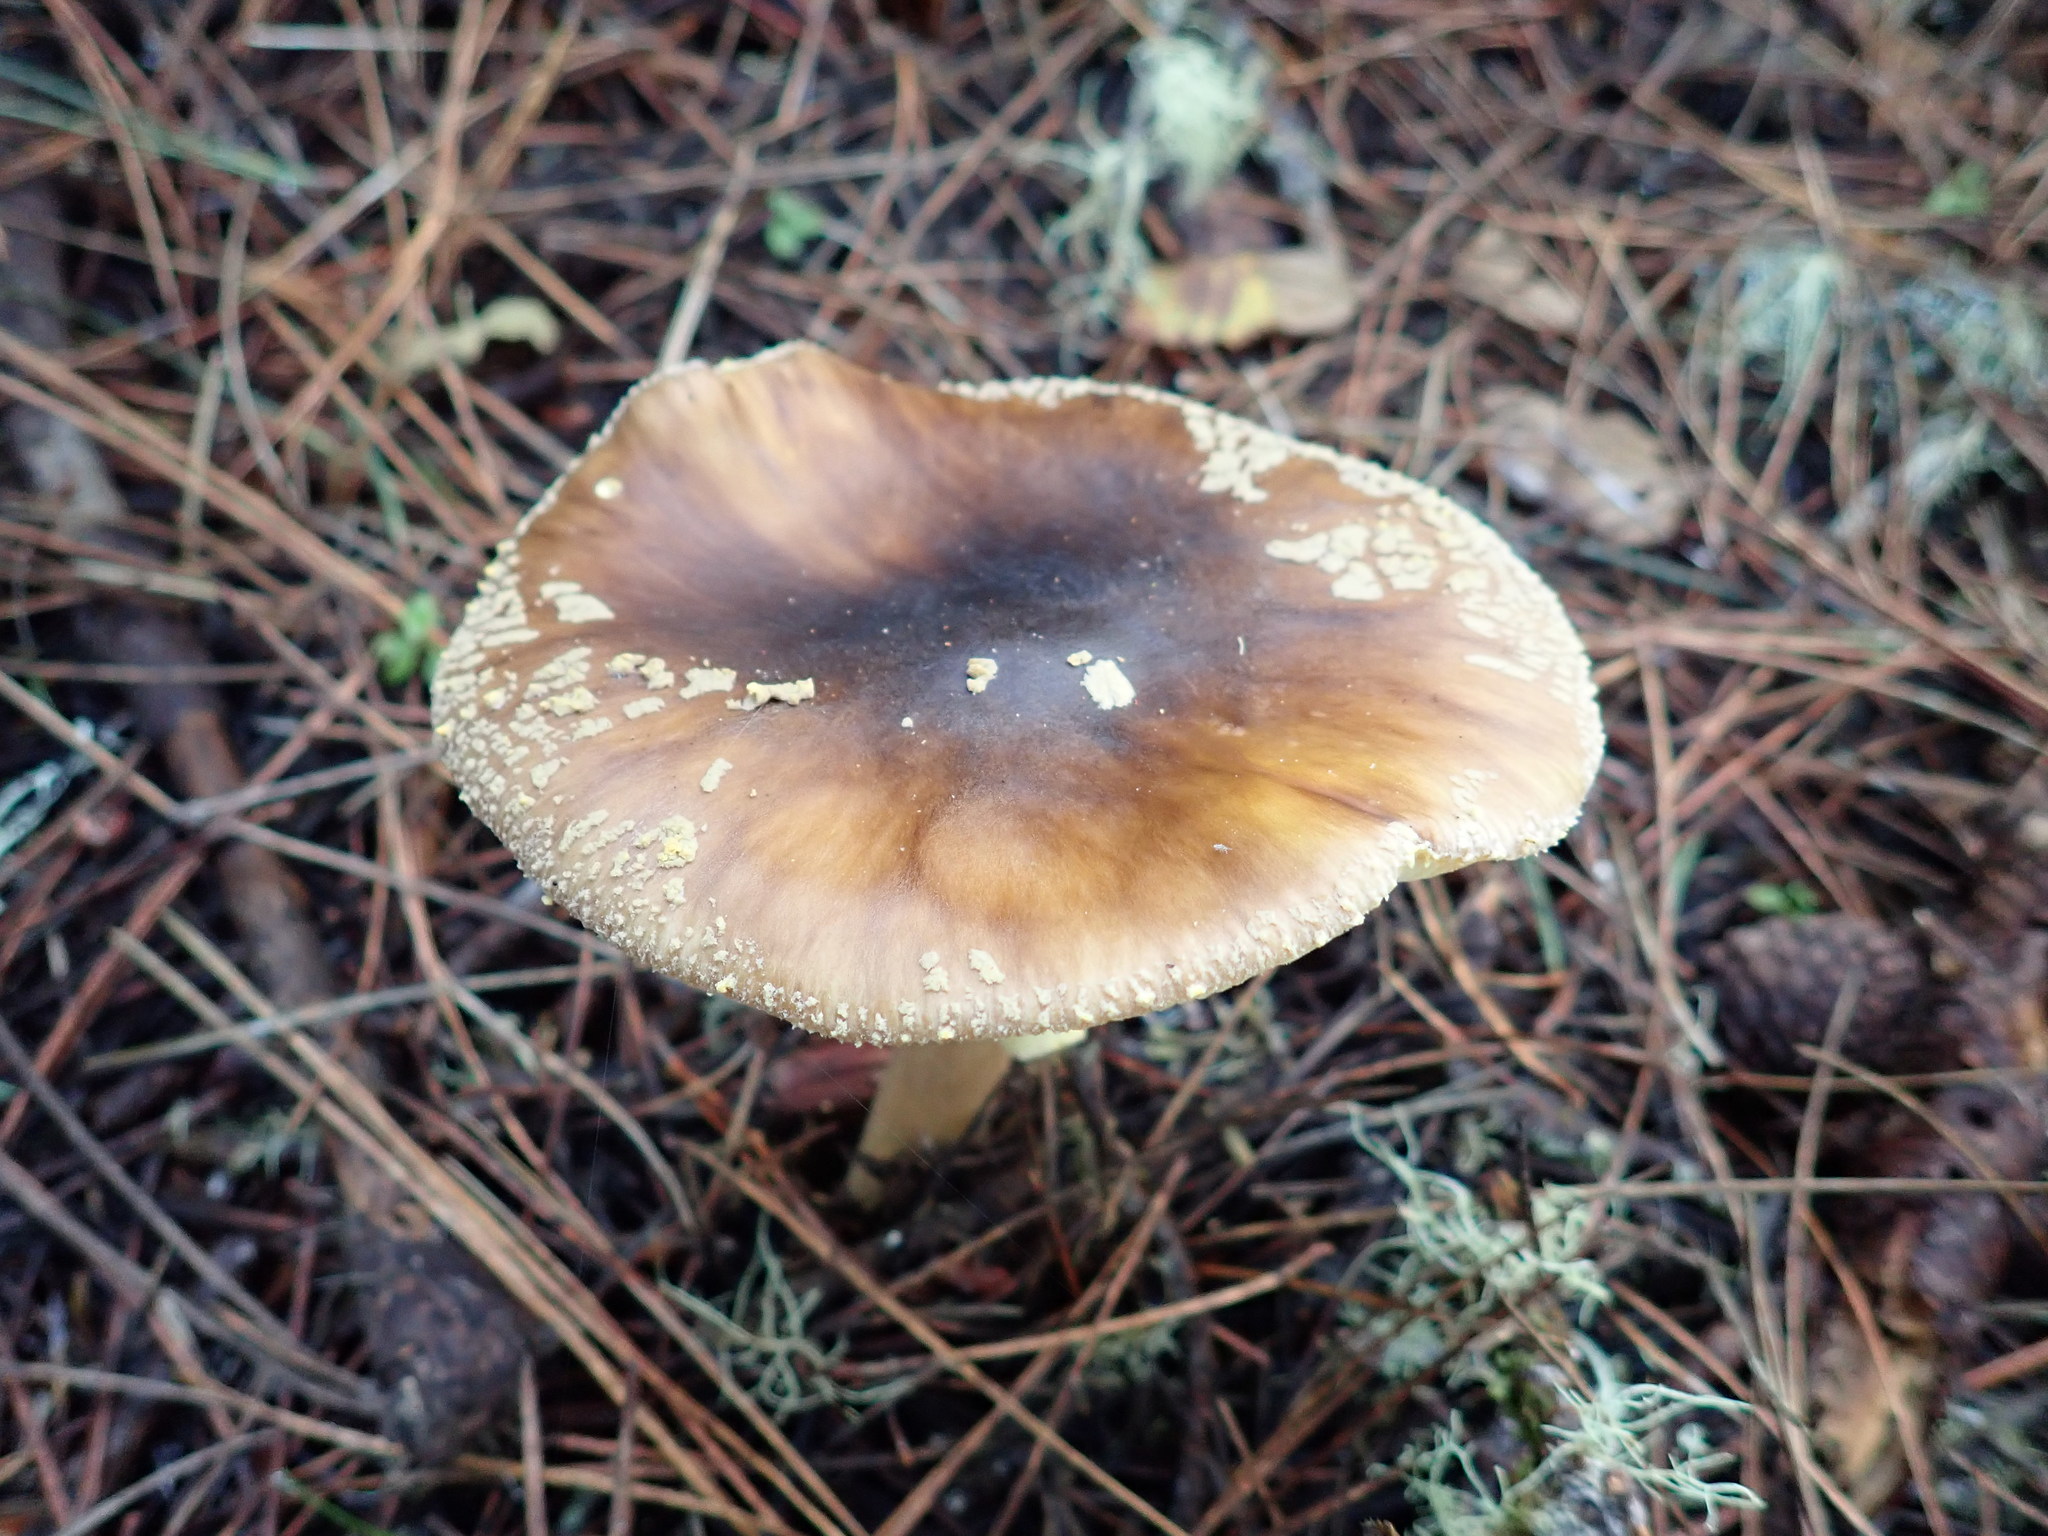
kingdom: Fungi
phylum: Basidiomycota
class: Agaricomycetes
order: Agaricales
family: Amanitaceae
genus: Amanita
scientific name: Amanita augusta
